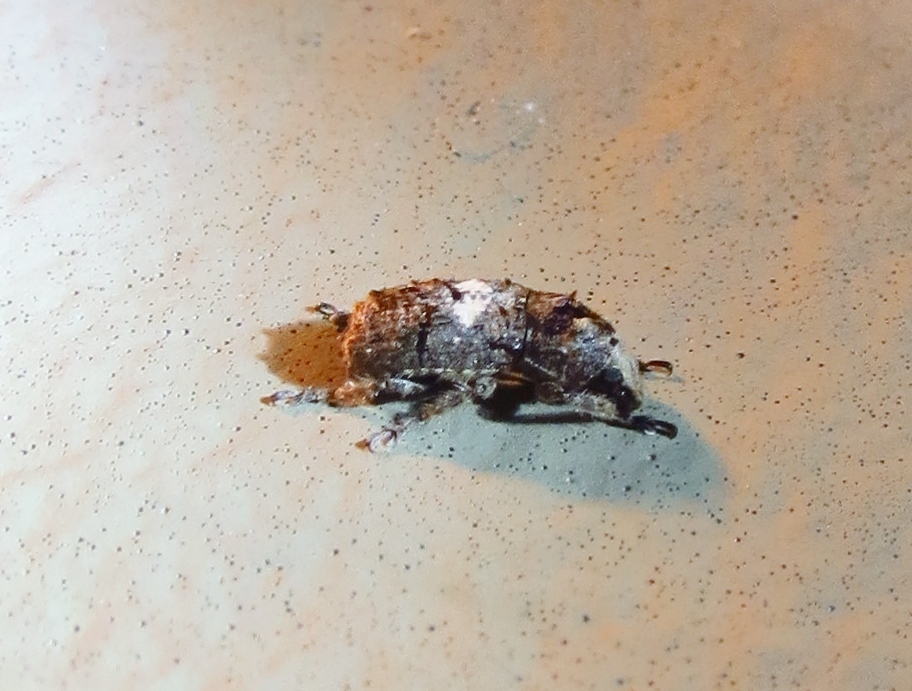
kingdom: Animalia
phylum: Arthropoda
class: Insecta
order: Coleoptera
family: Anthribidae
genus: Toxonotus
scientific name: Toxonotus cornutus
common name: Fungus weevil
